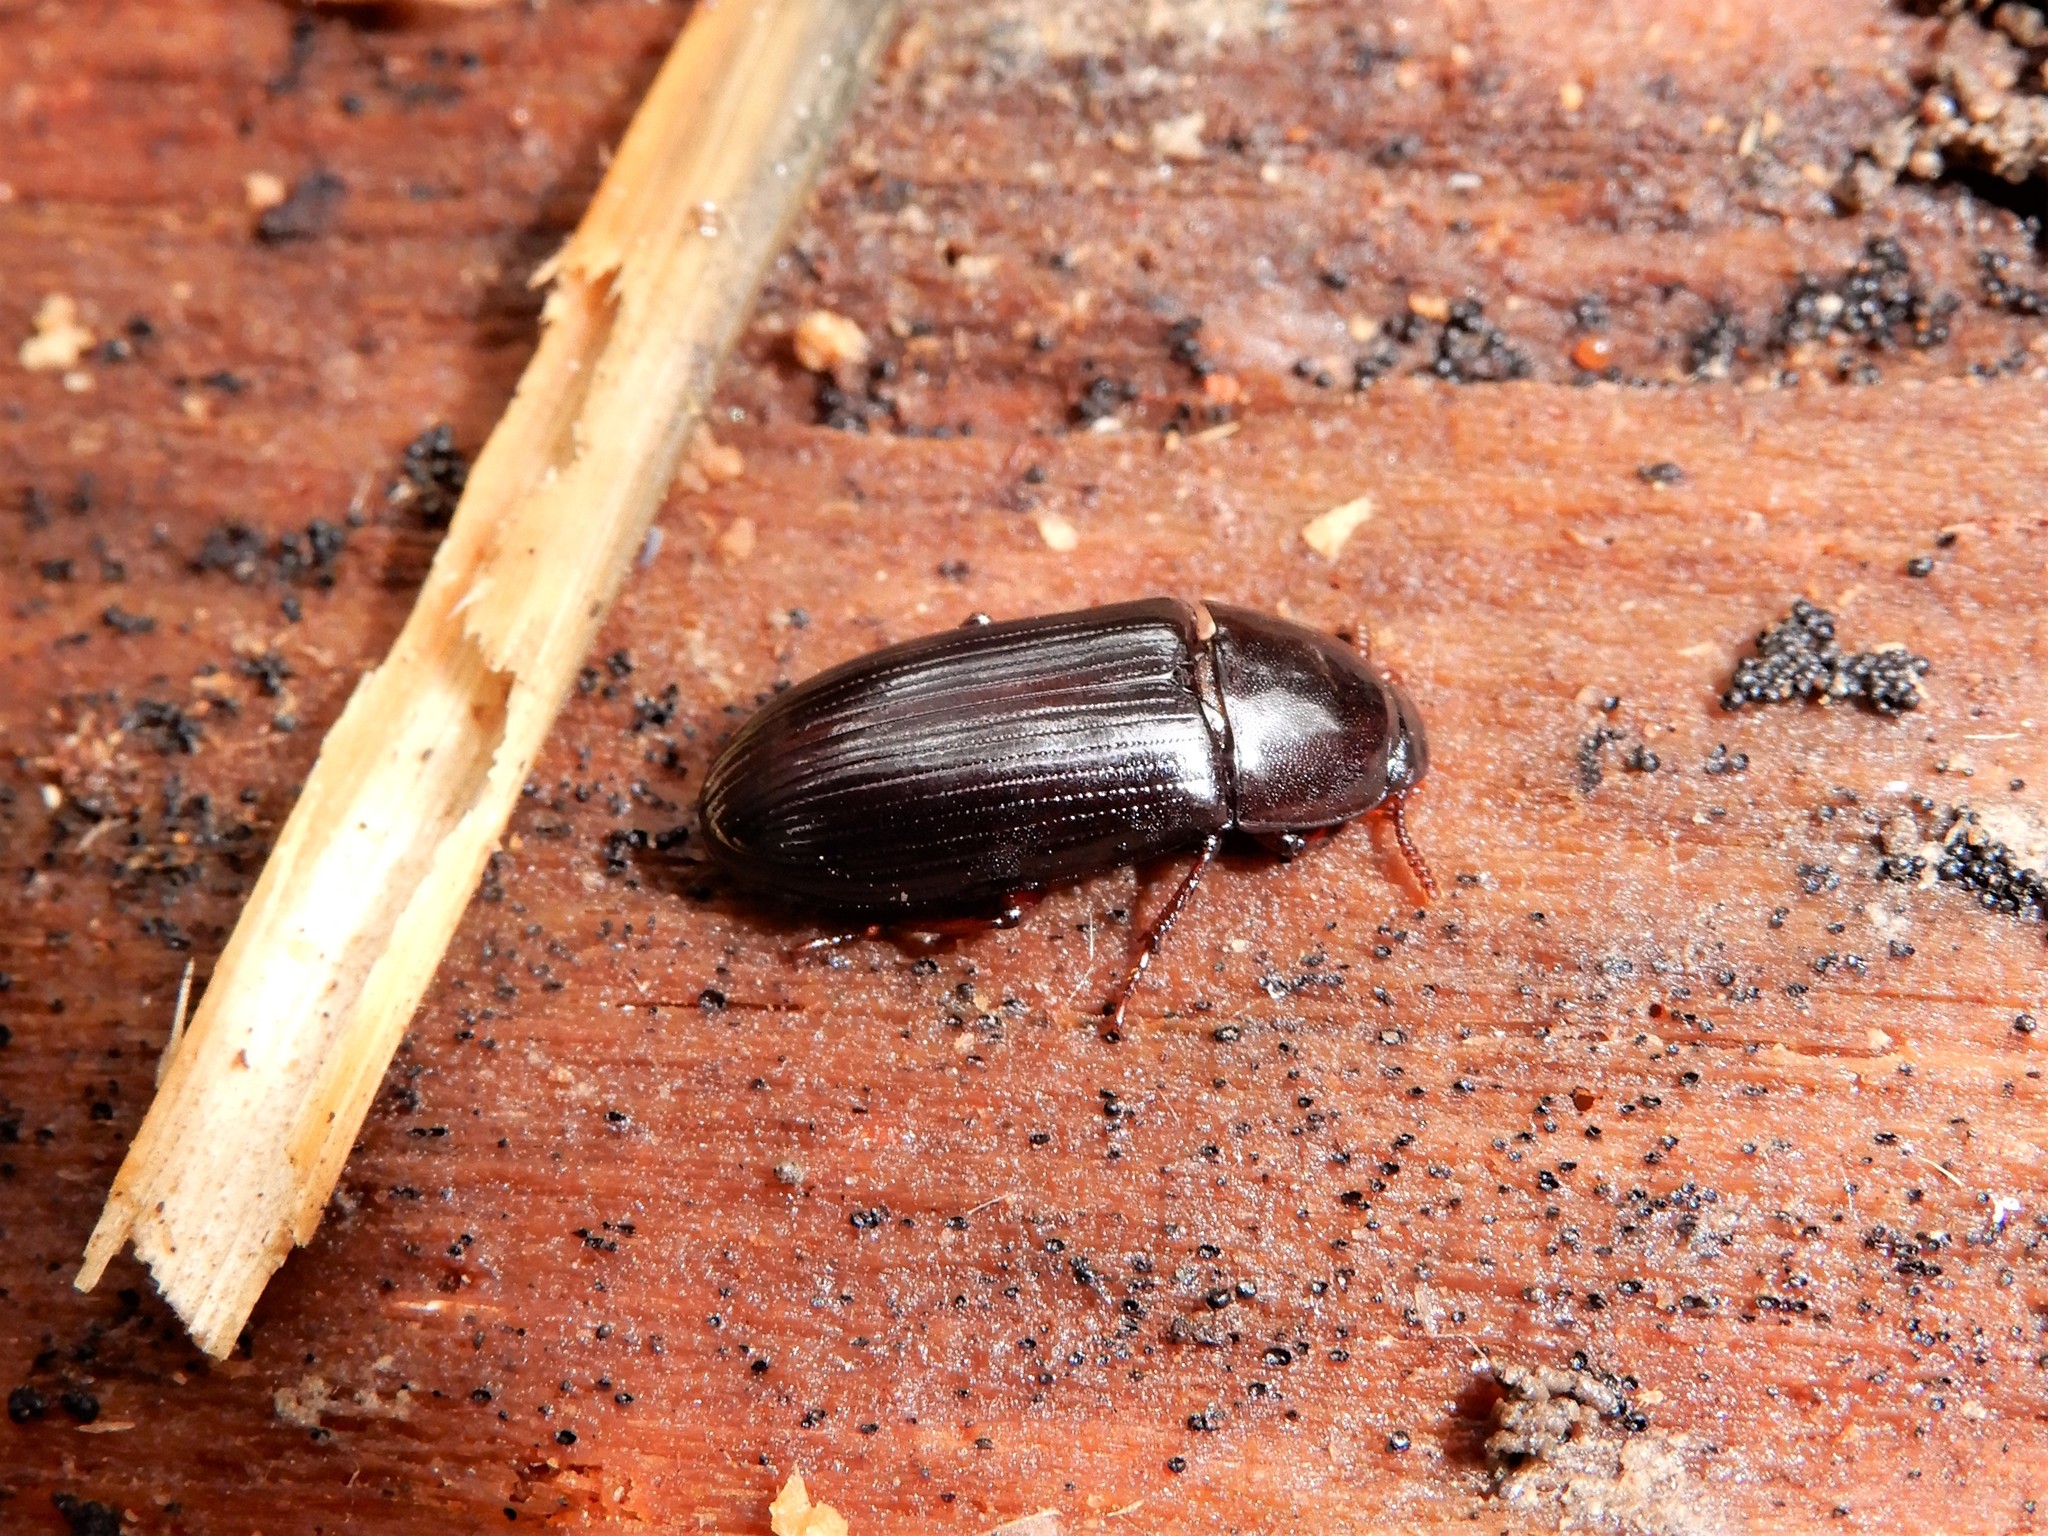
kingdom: Animalia
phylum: Arthropoda
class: Insecta
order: Coleoptera
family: Tenebrionidae
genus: Uloma
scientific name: Uloma tenebrionoides
